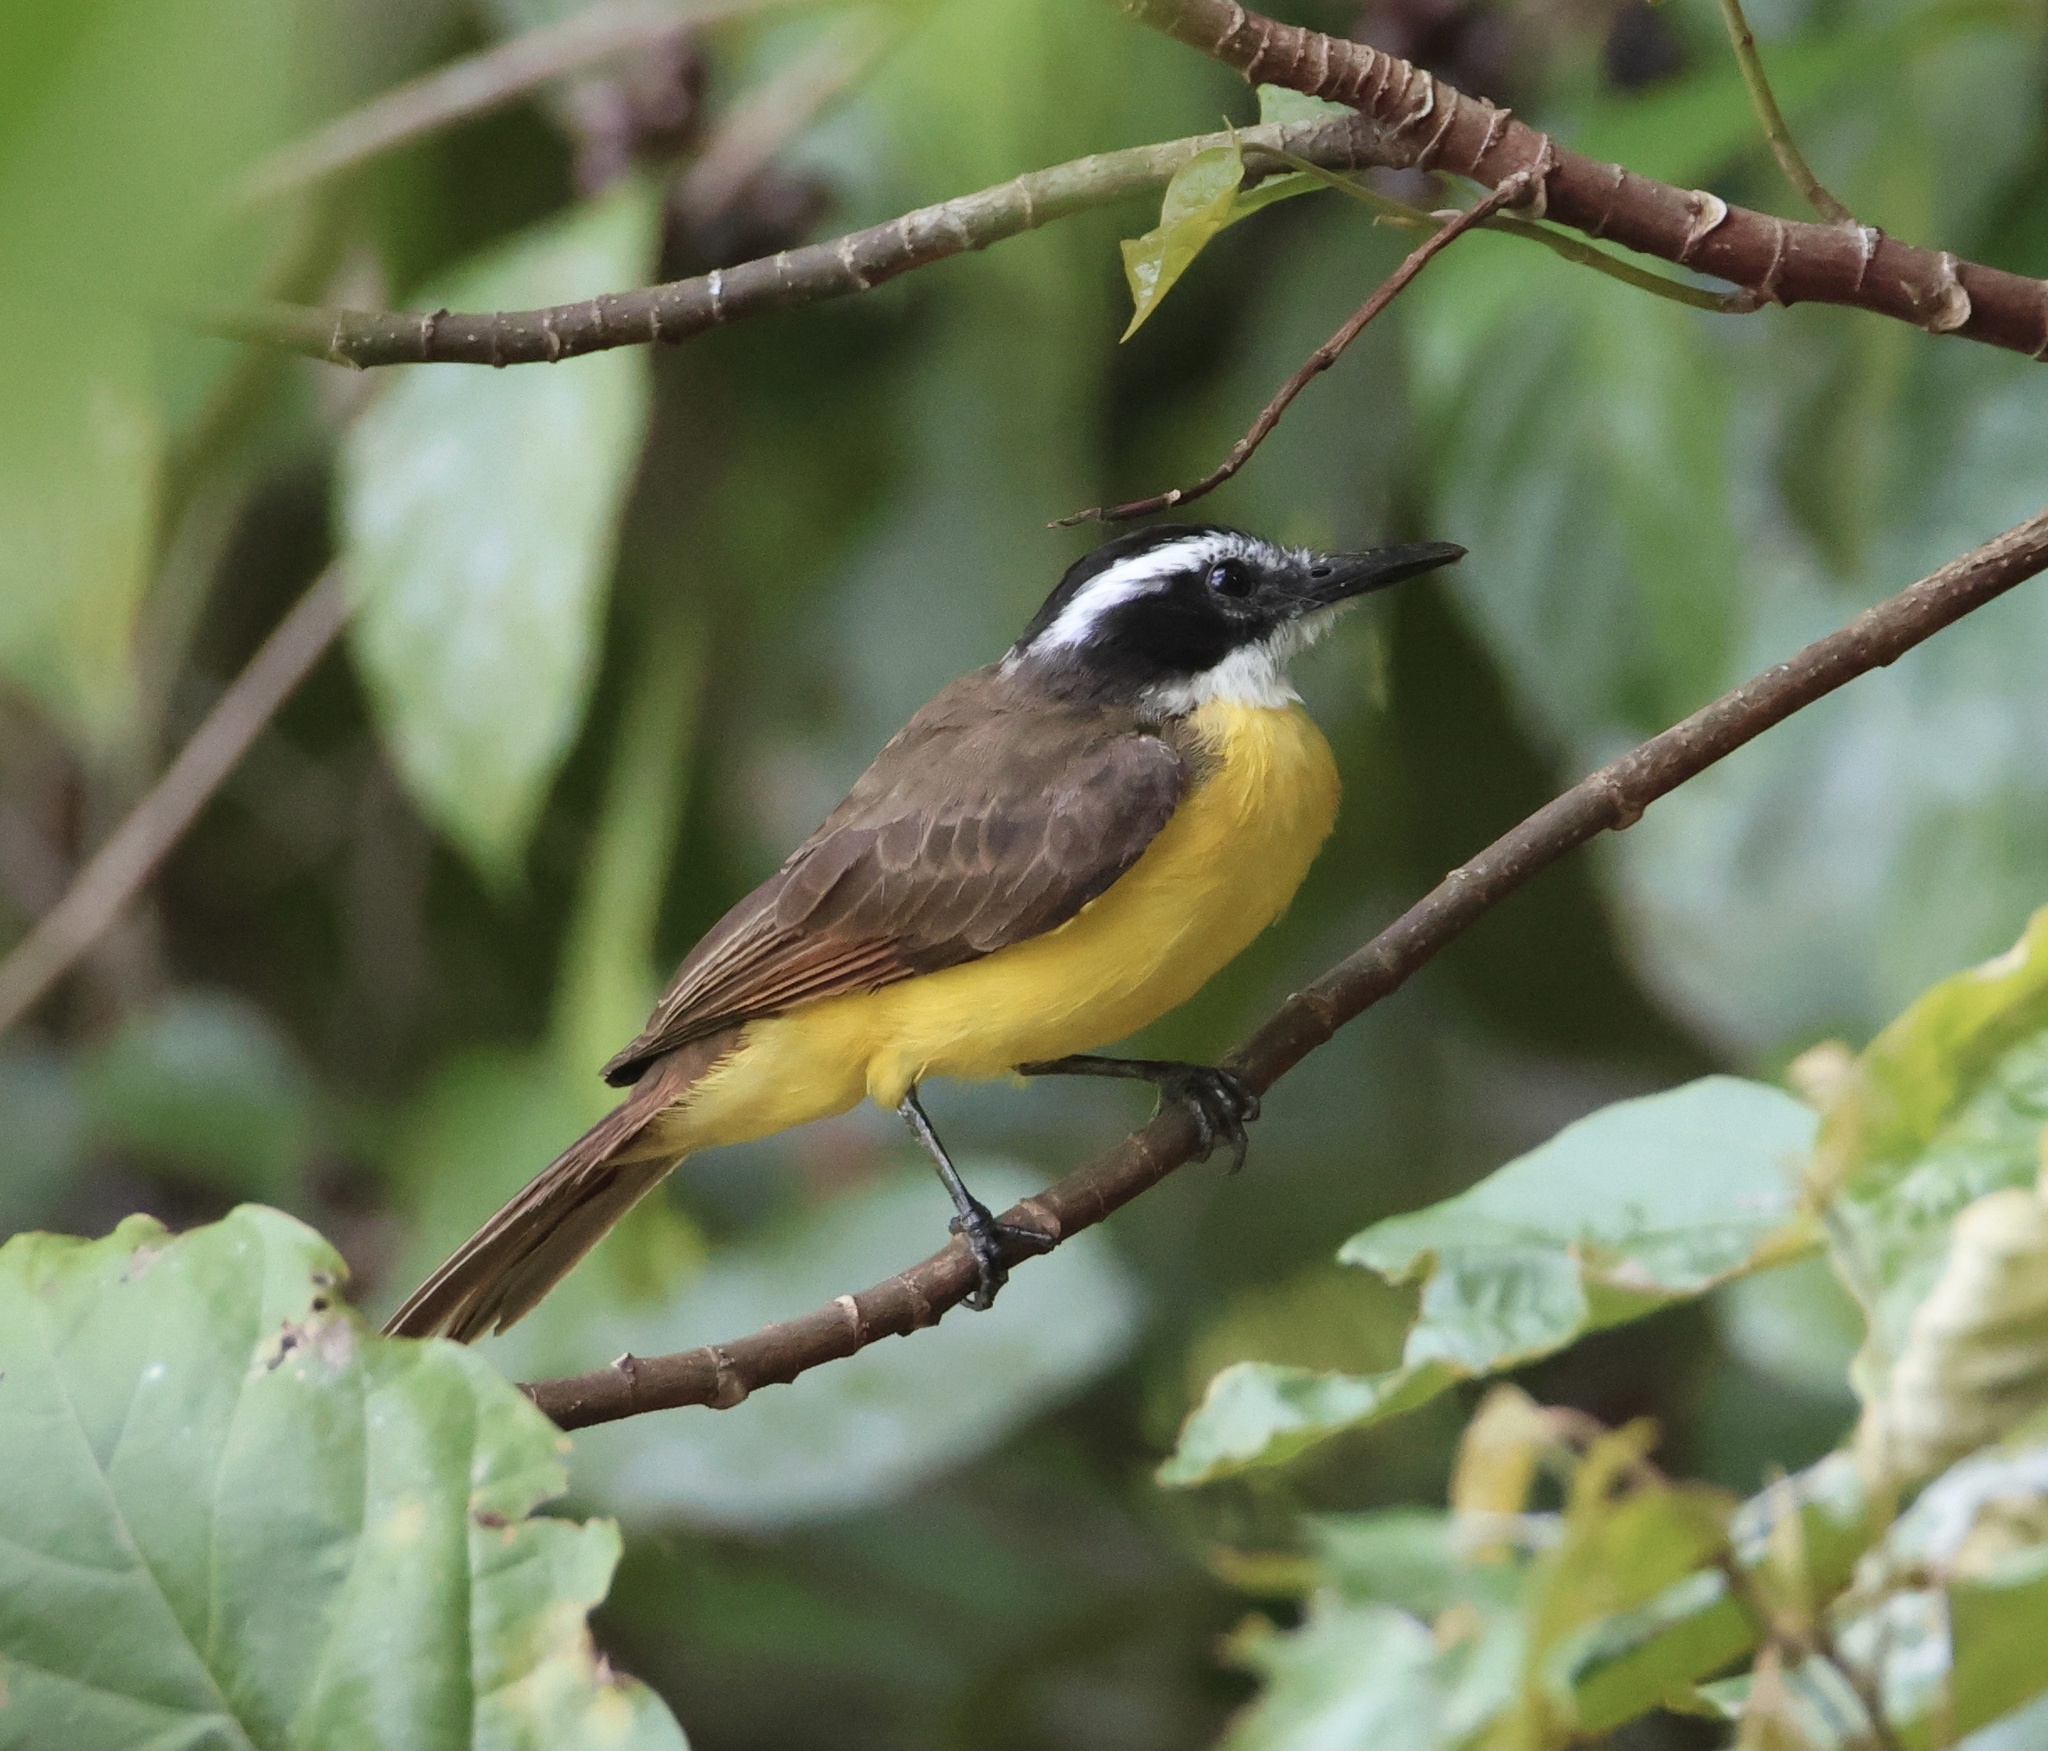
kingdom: Animalia
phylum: Chordata
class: Aves
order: Passeriformes
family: Tyrannidae
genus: Pitangus
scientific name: Pitangus lictor
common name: Lesser kiskadee
